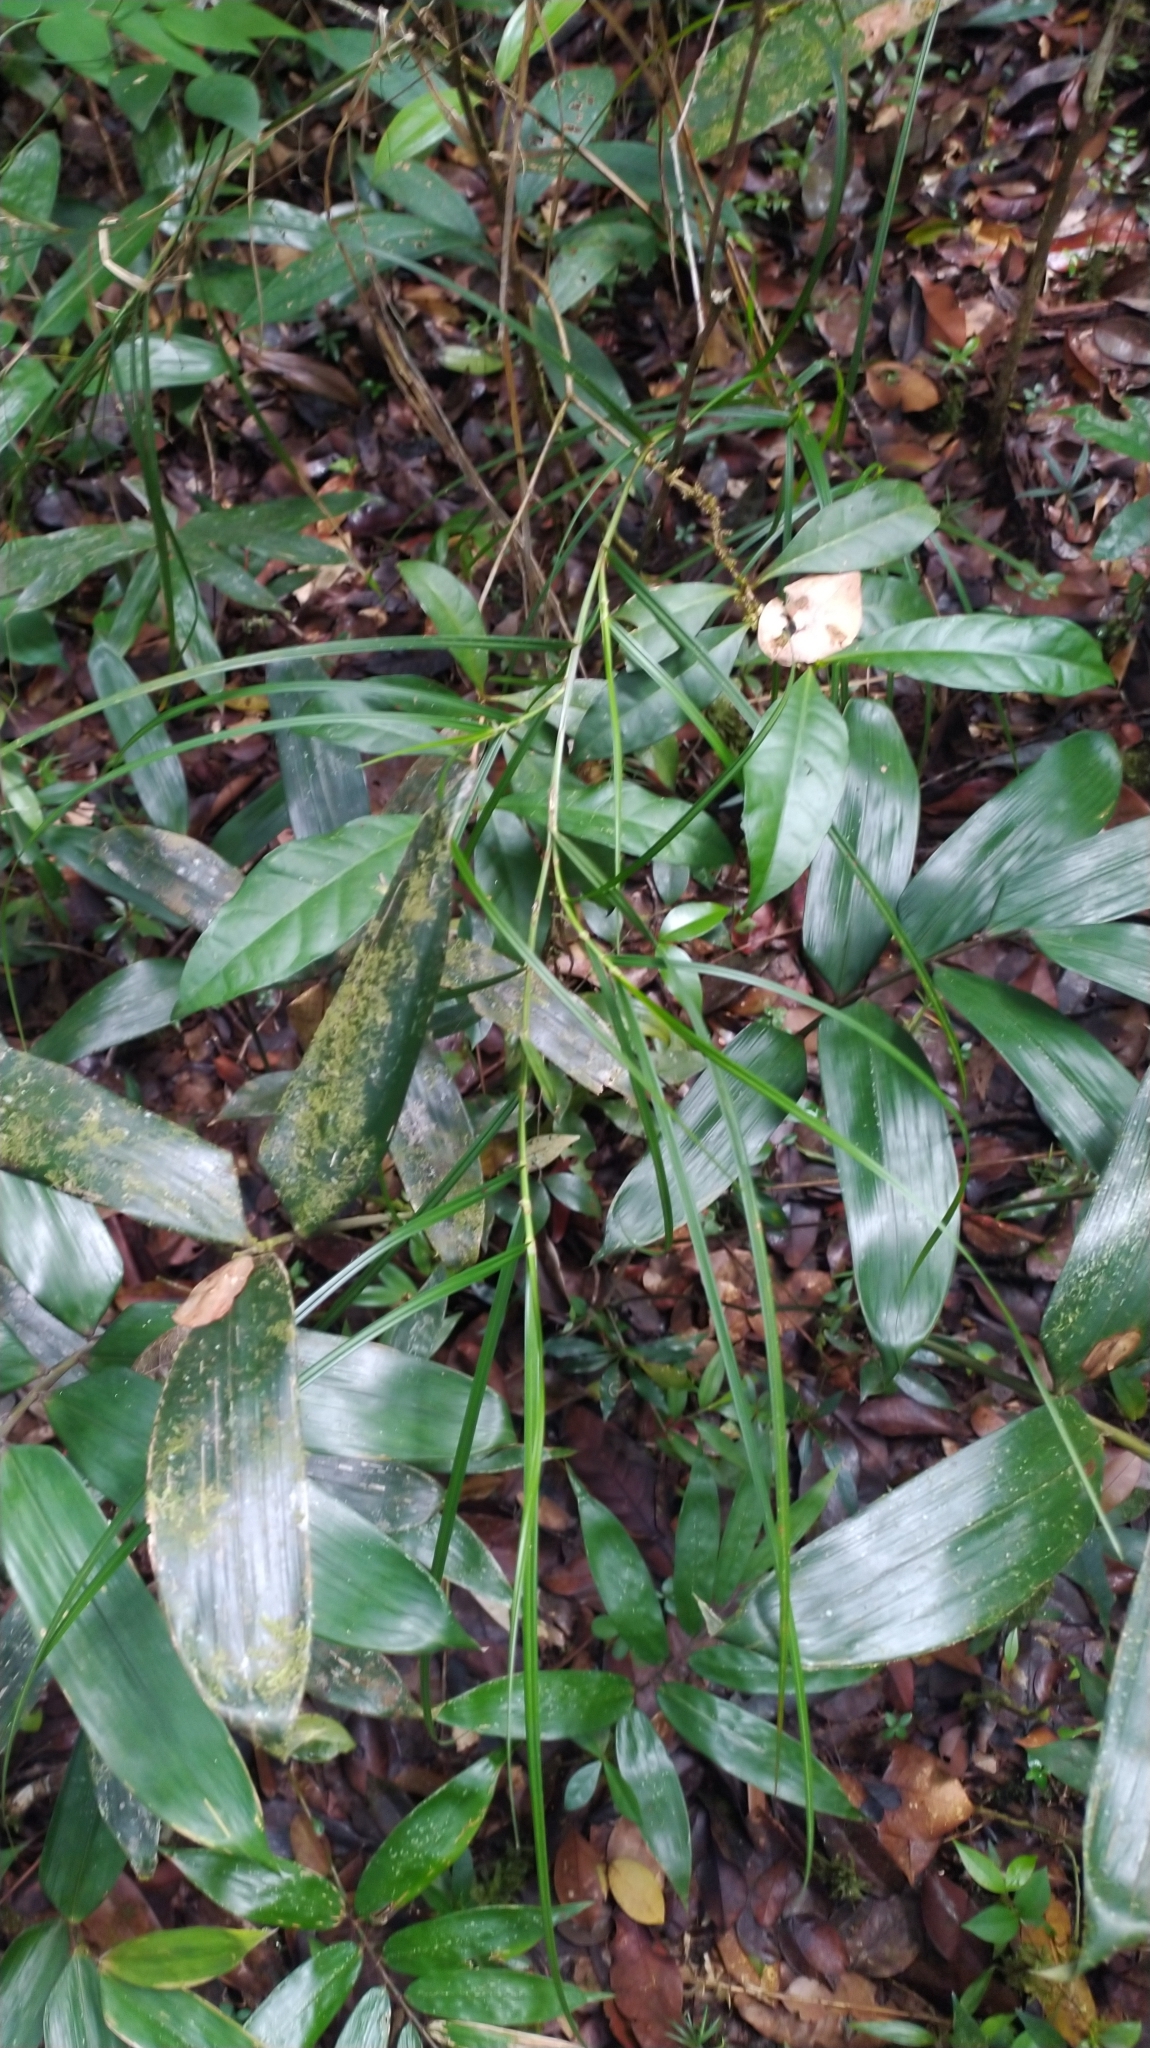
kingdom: Plantae
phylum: Tracheophyta
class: Liliopsida
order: Poales
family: Cyperaceae
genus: Scleria
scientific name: Scleria secans
